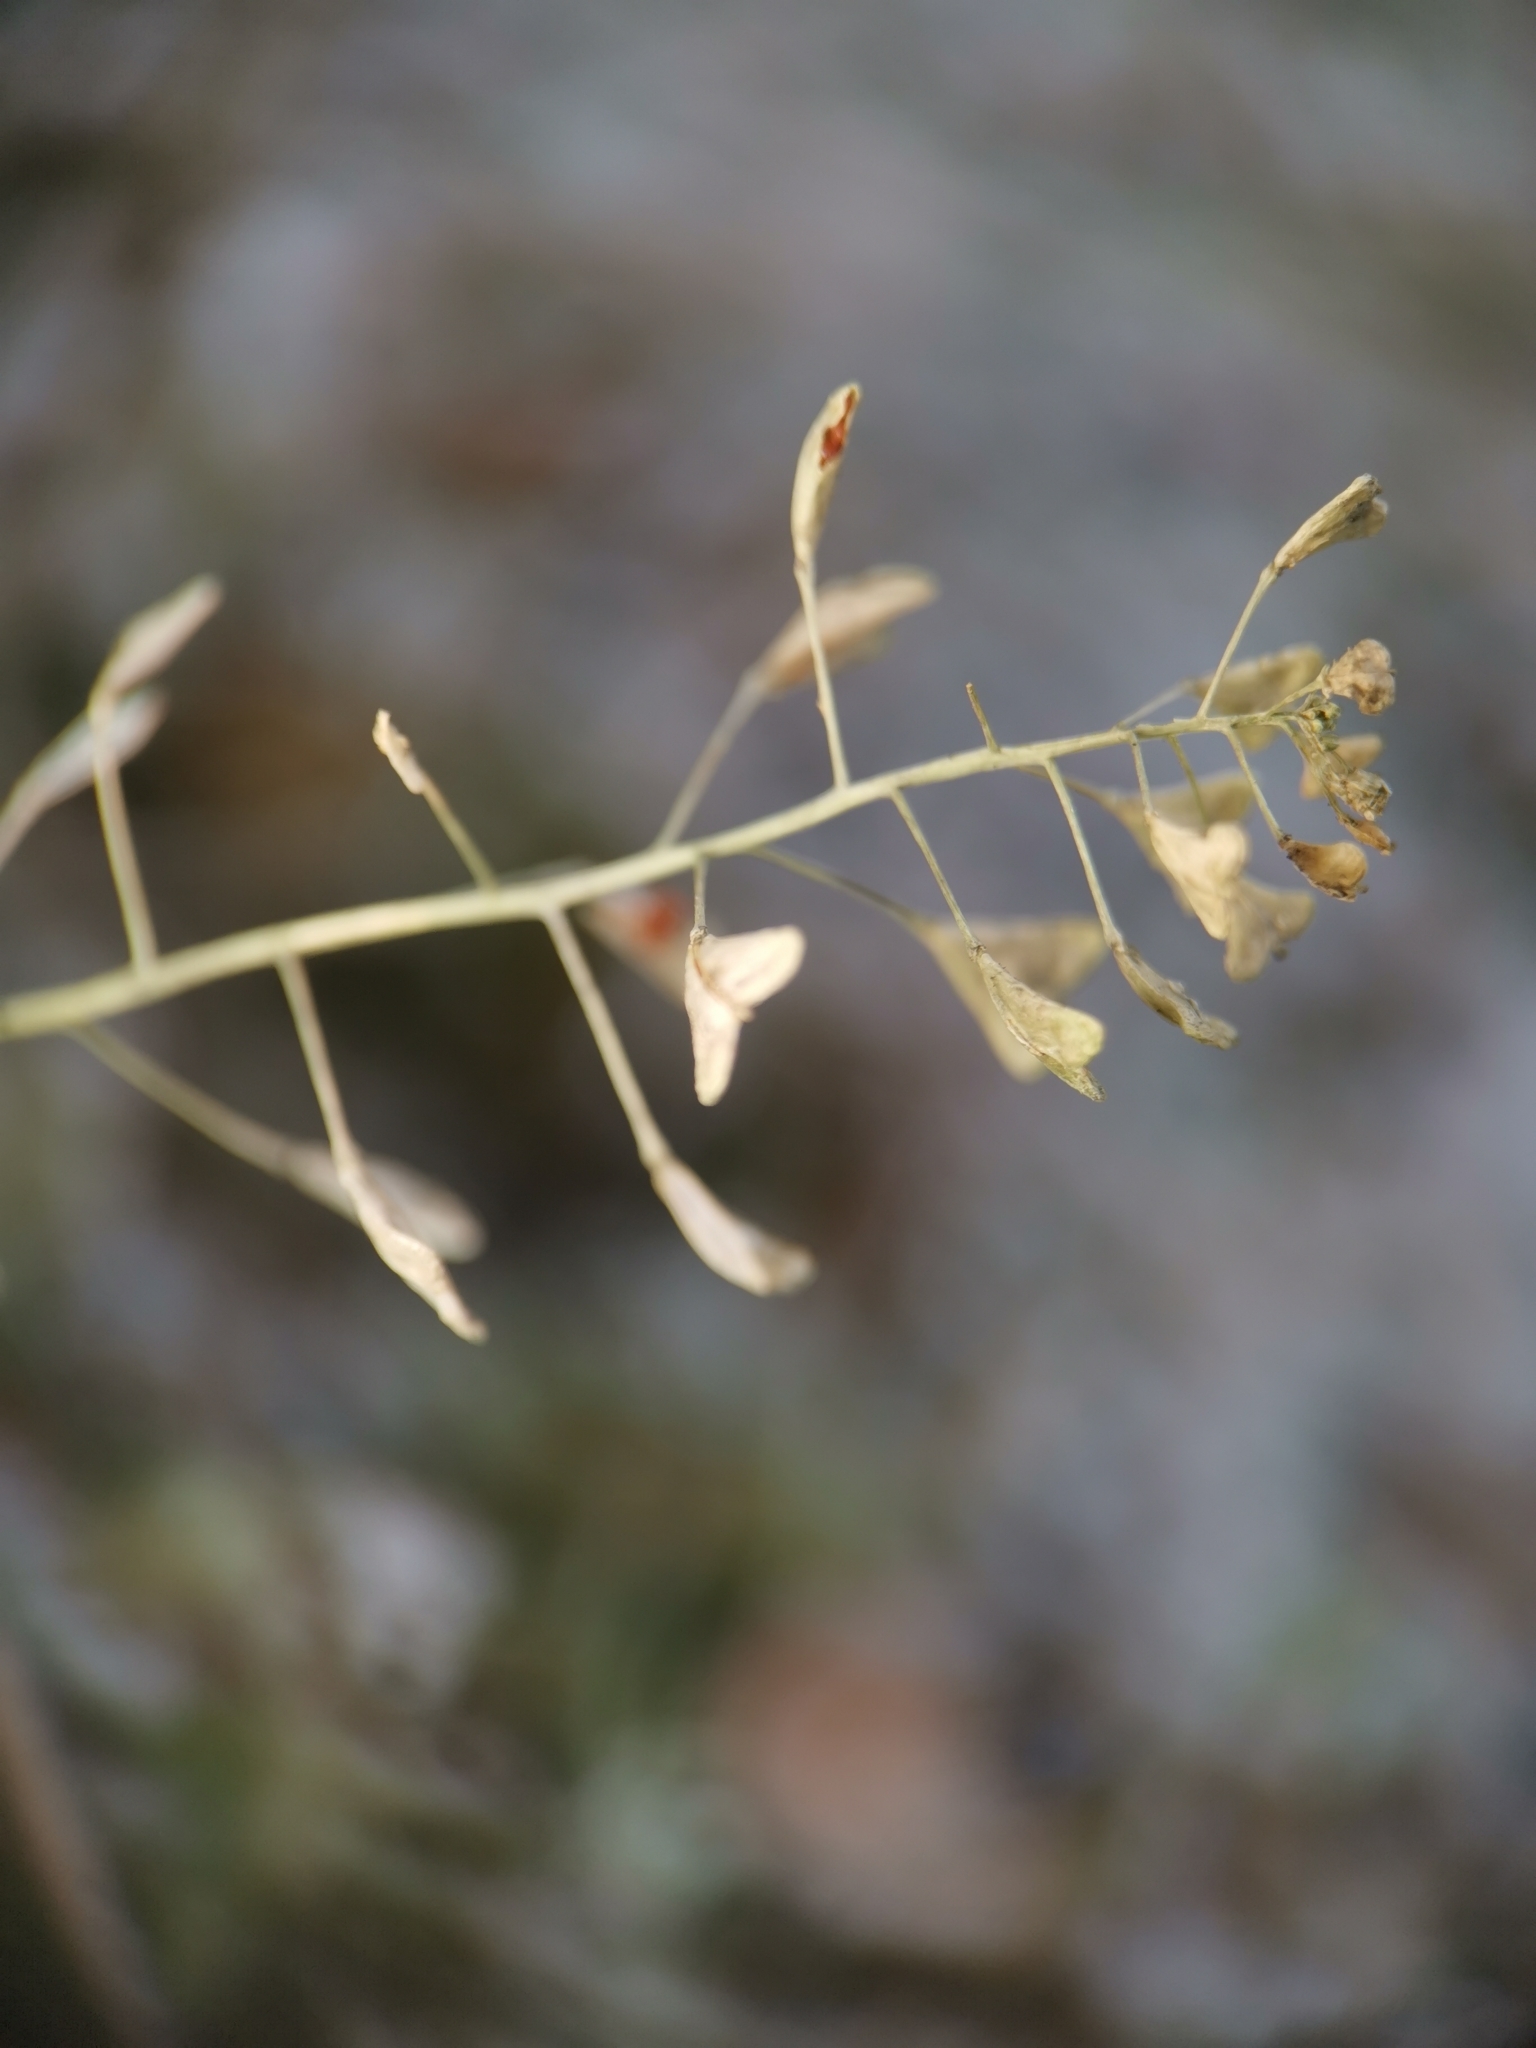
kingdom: Plantae
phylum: Tracheophyta
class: Magnoliopsida
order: Brassicales
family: Brassicaceae
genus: Capsella
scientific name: Capsella bursa-pastoris
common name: Shepherd's purse
